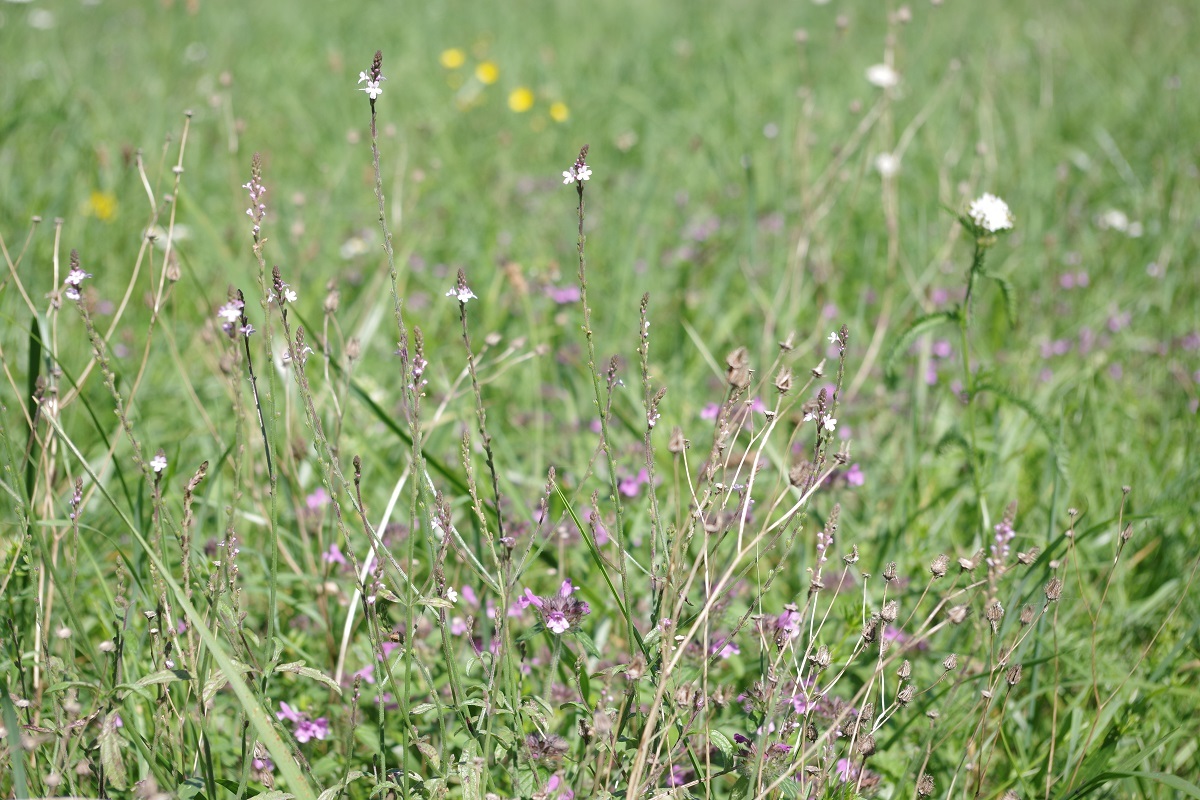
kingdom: Plantae
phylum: Tracheophyta
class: Magnoliopsida
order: Lamiales
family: Verbenaceae
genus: Verbena
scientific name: Verbena officinalis
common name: Vervain
